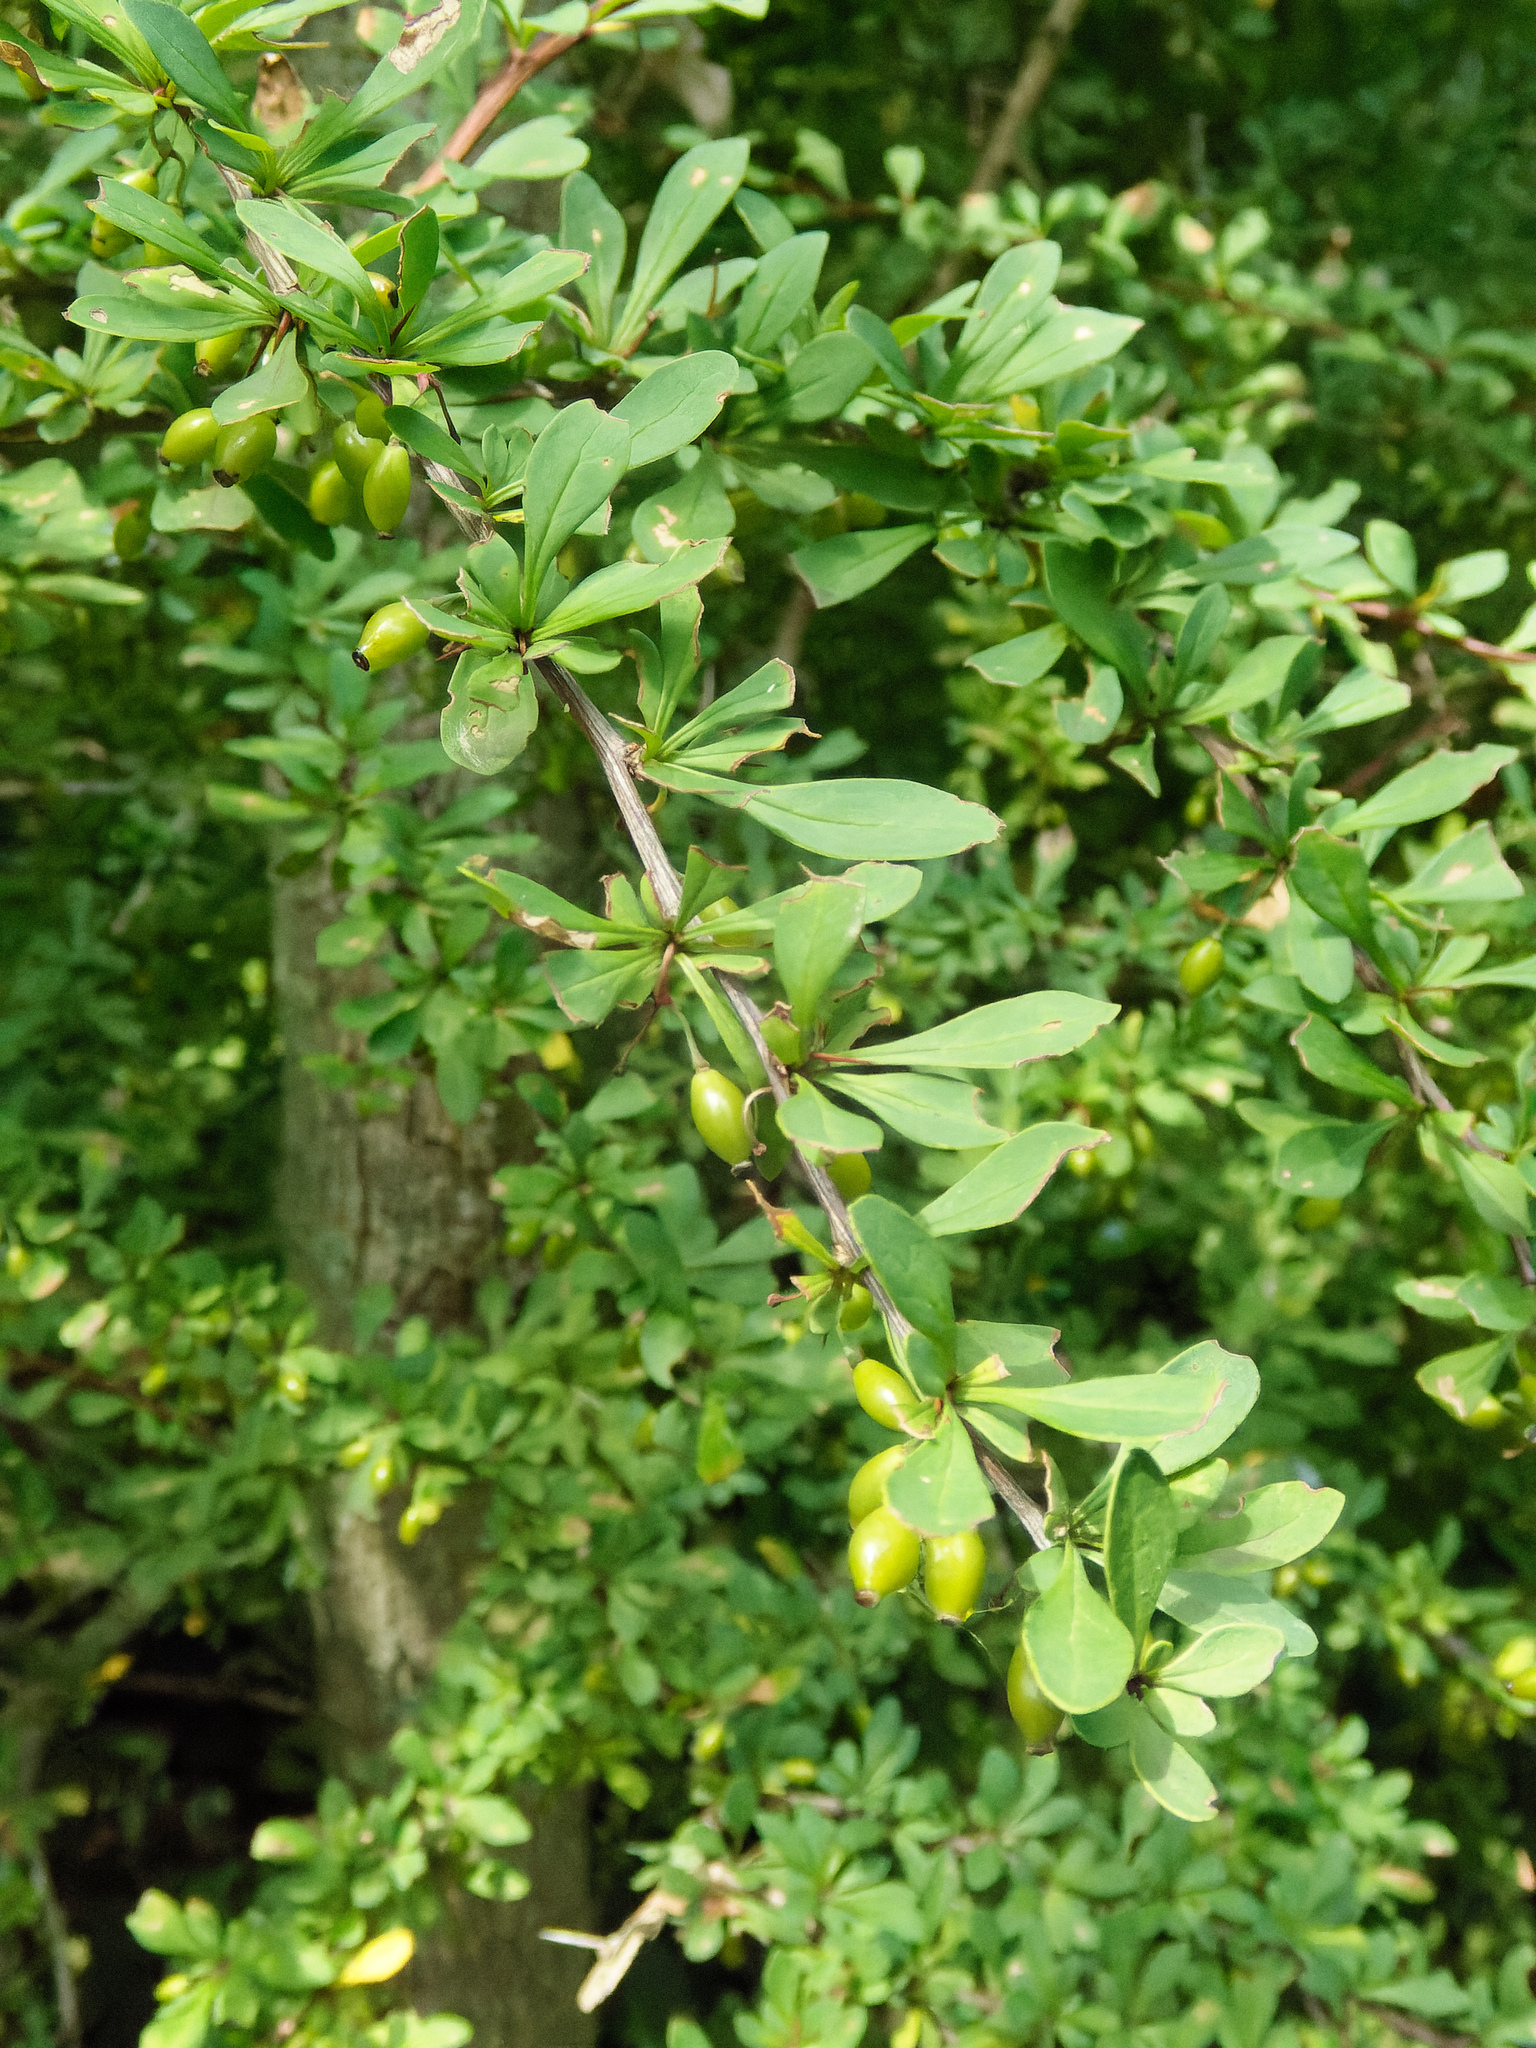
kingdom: Plantae
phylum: Tracheophyta
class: Magnoliopsida
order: Ranunculales
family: Berberidaceae
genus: Berberis
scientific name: Berberis thunbergii
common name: Japanese barberry
